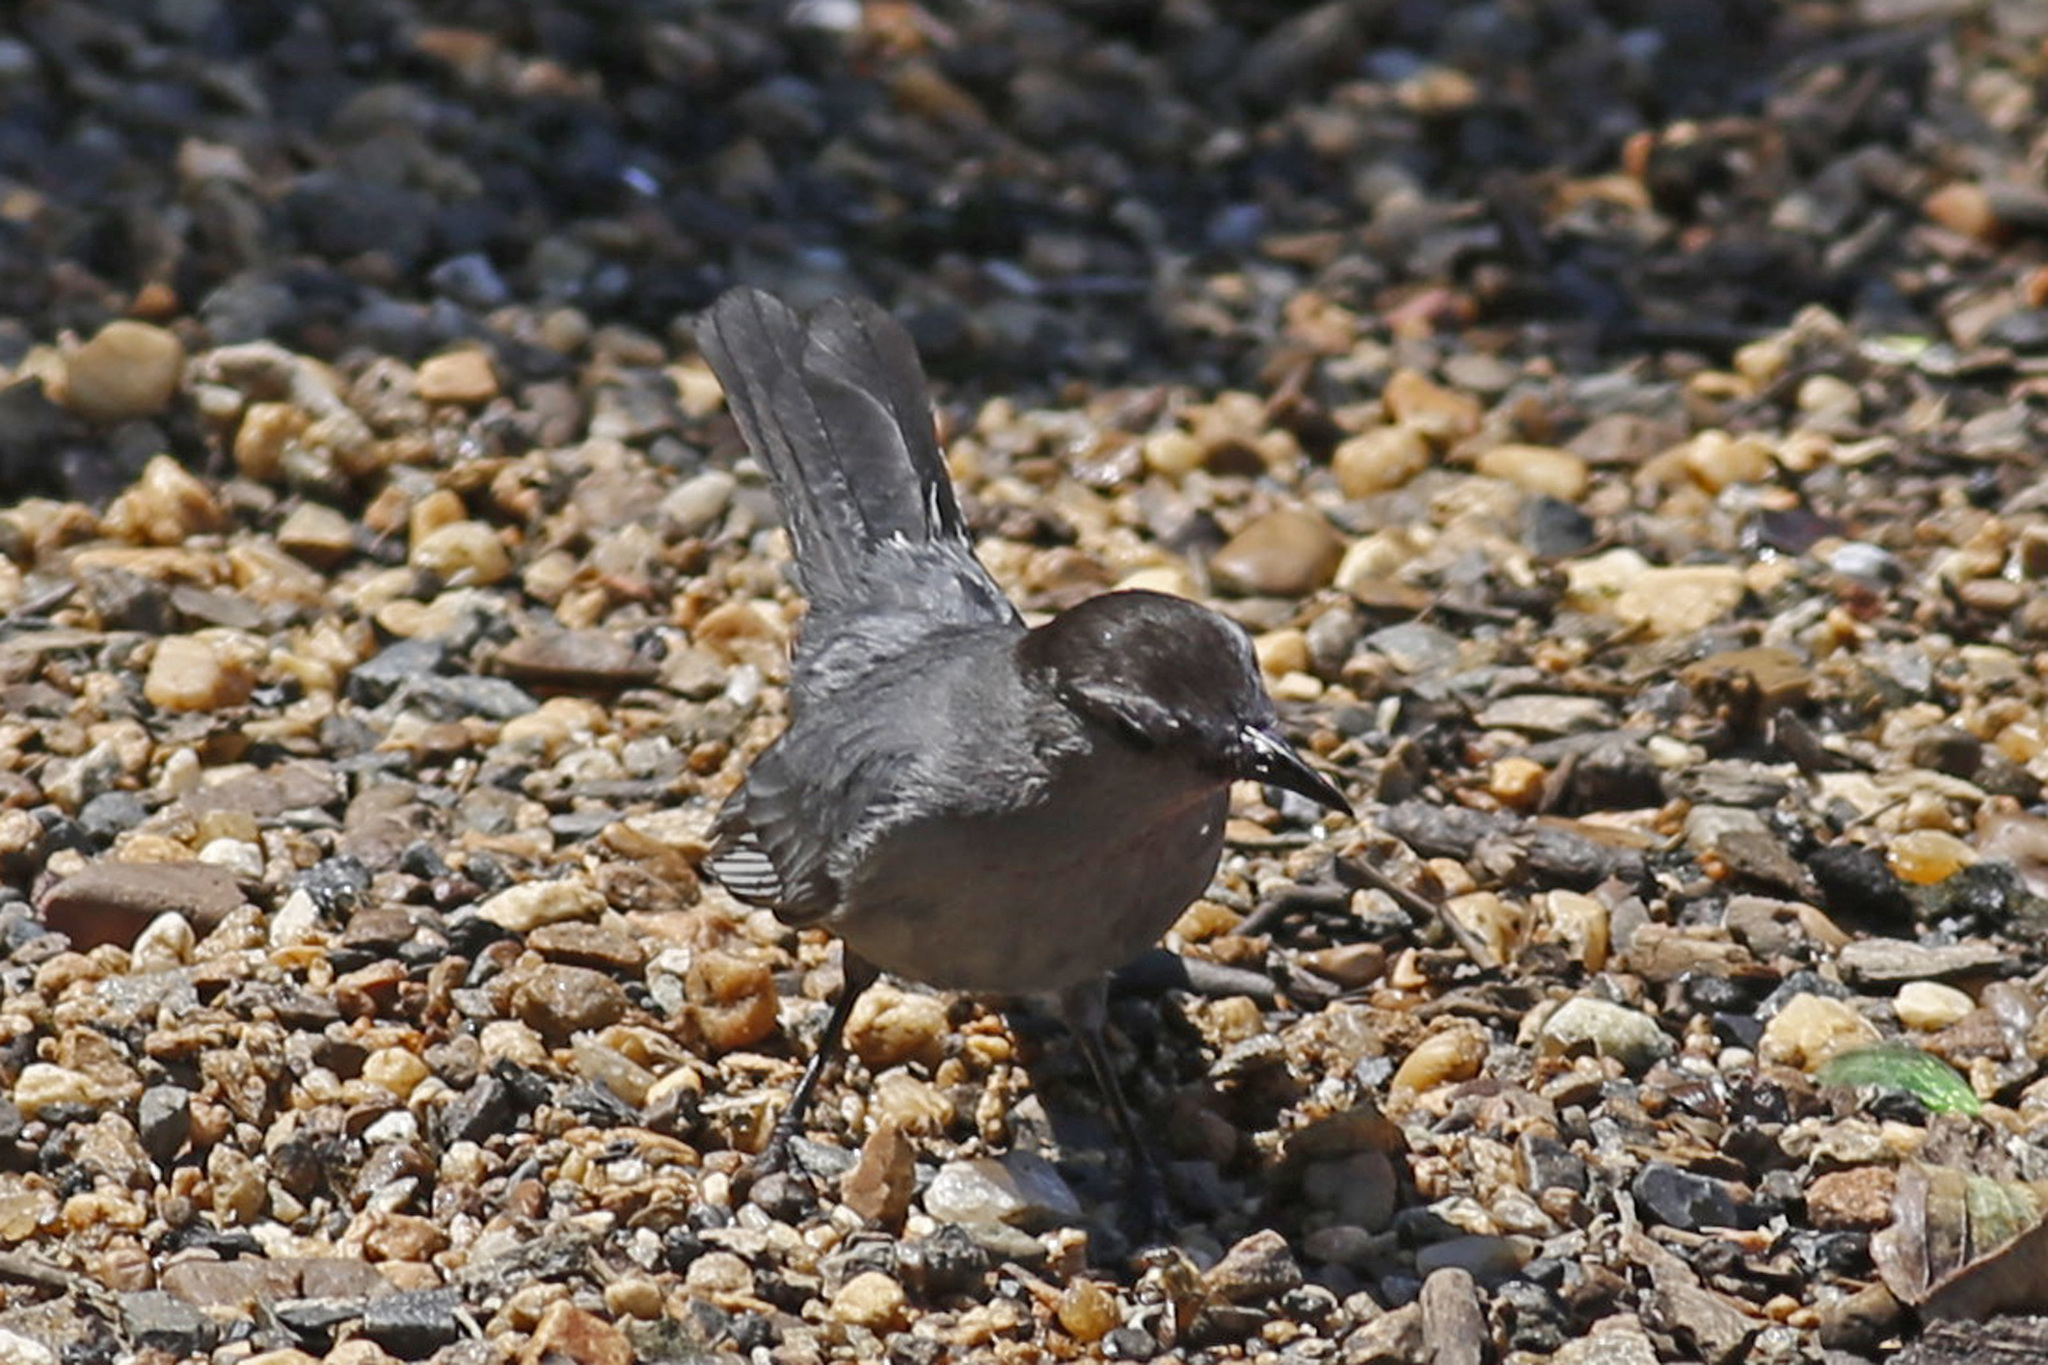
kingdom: Animalia
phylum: Chordata
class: Aves
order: Passeriformes
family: Mimidae
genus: Dumetella
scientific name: Dumetella carolinensis
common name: Gray catbird
